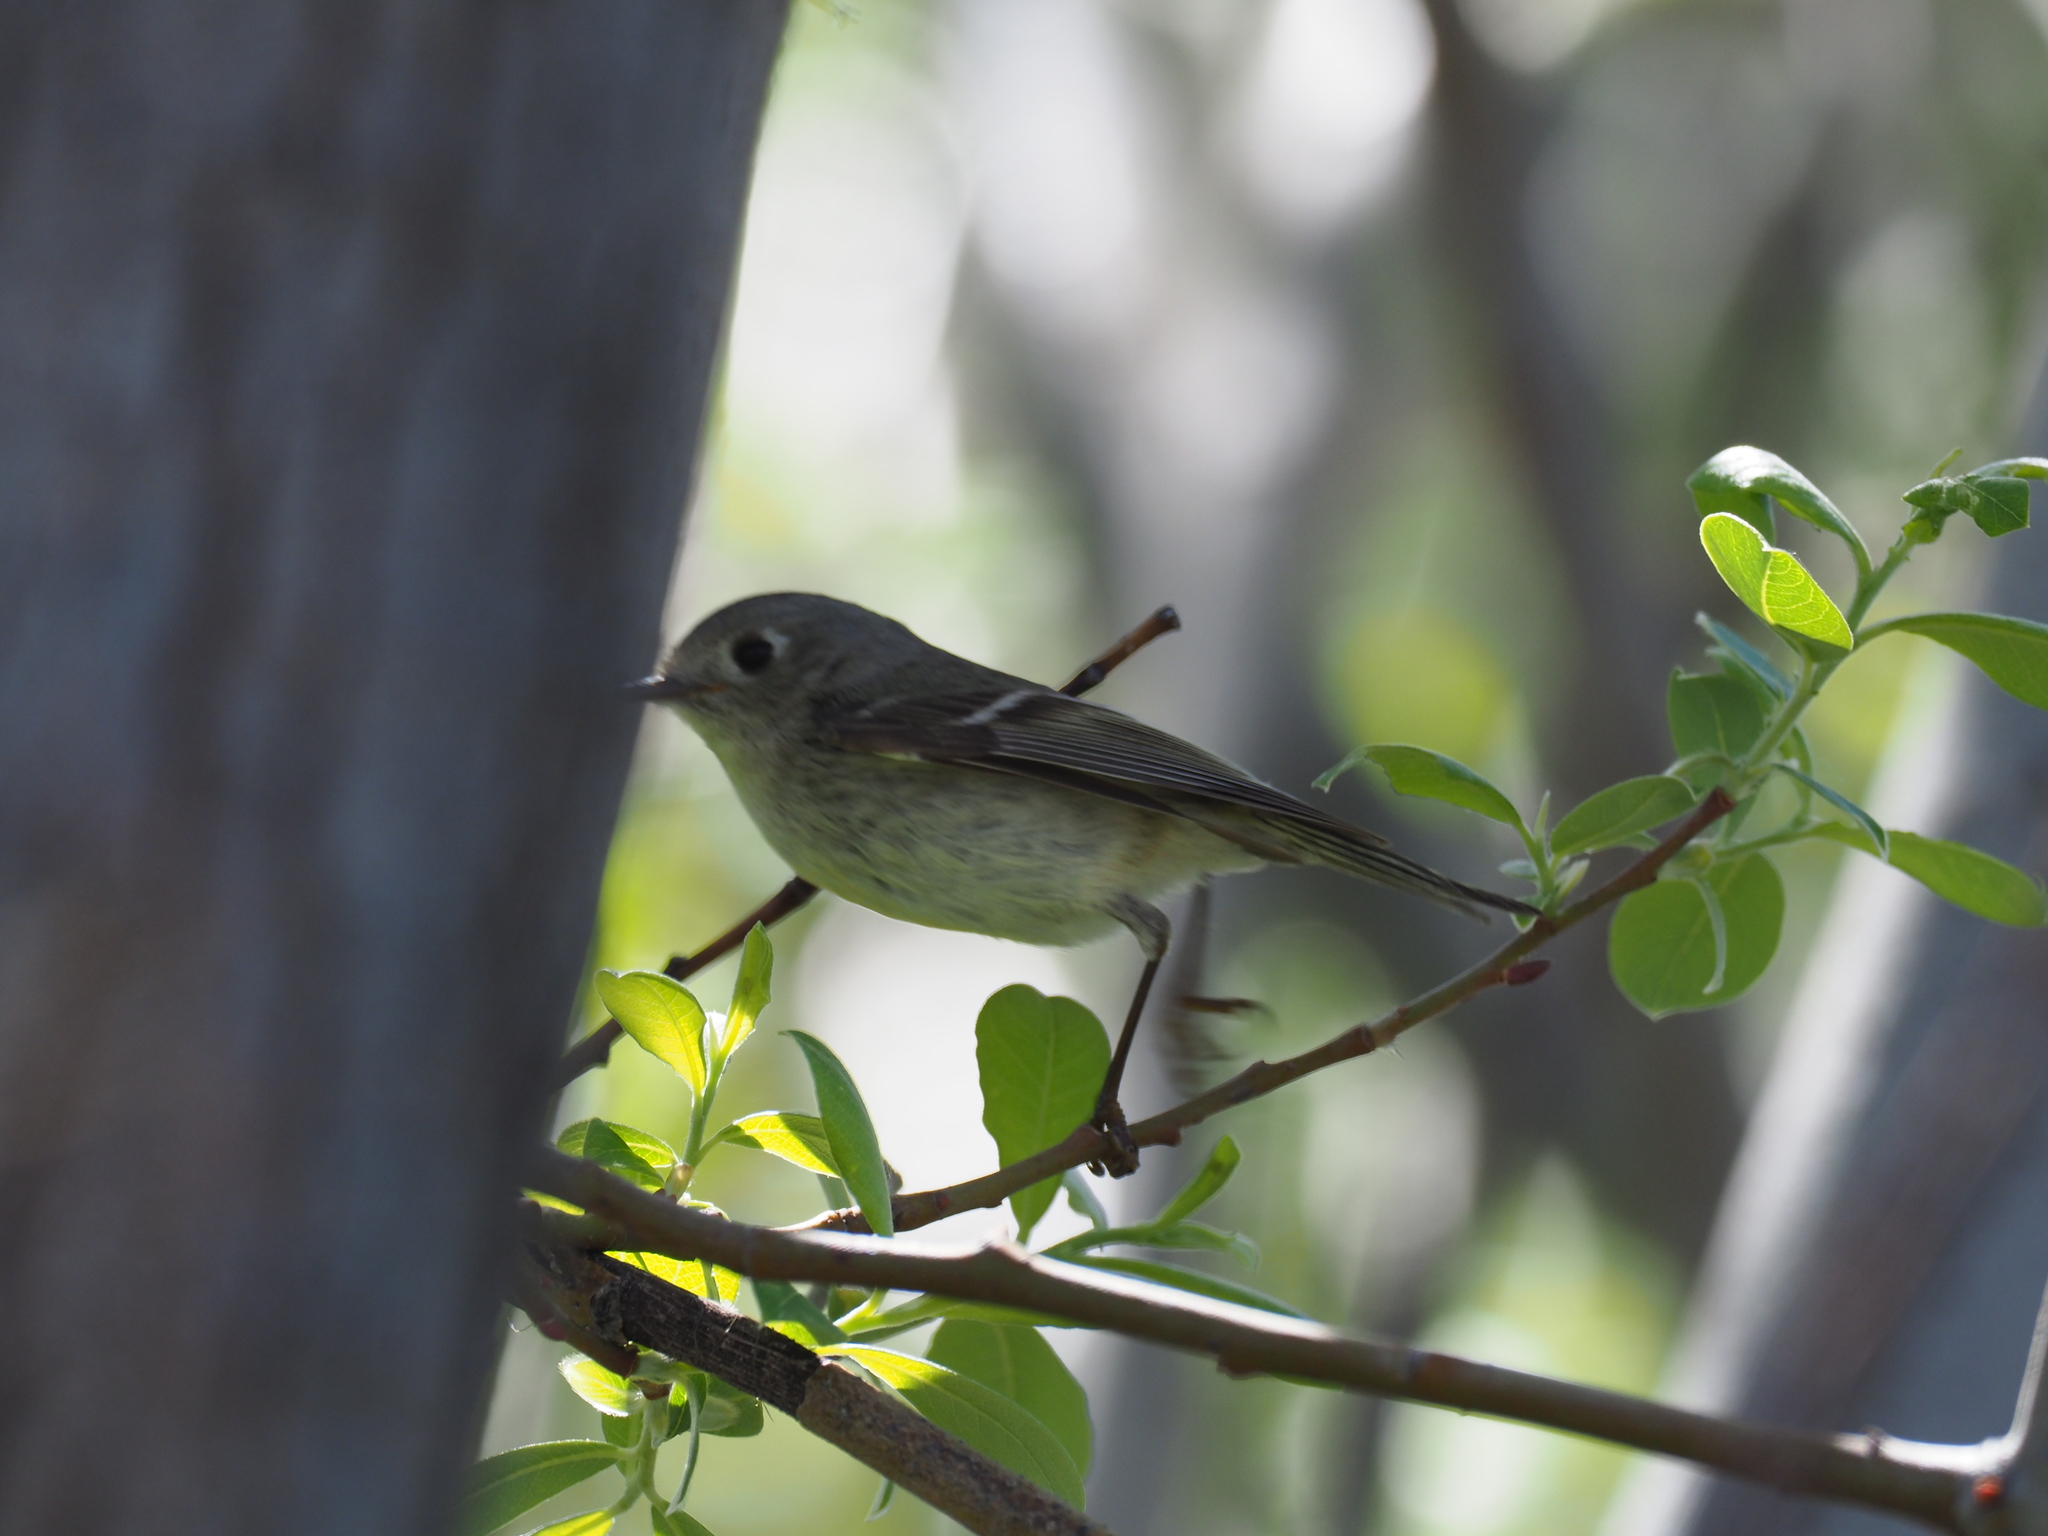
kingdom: Animalia
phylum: Chordata
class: Aves
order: Passeriformes
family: Regulidae
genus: Regulus
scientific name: Regulus calendula
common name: Ruby-crowned kinglet
